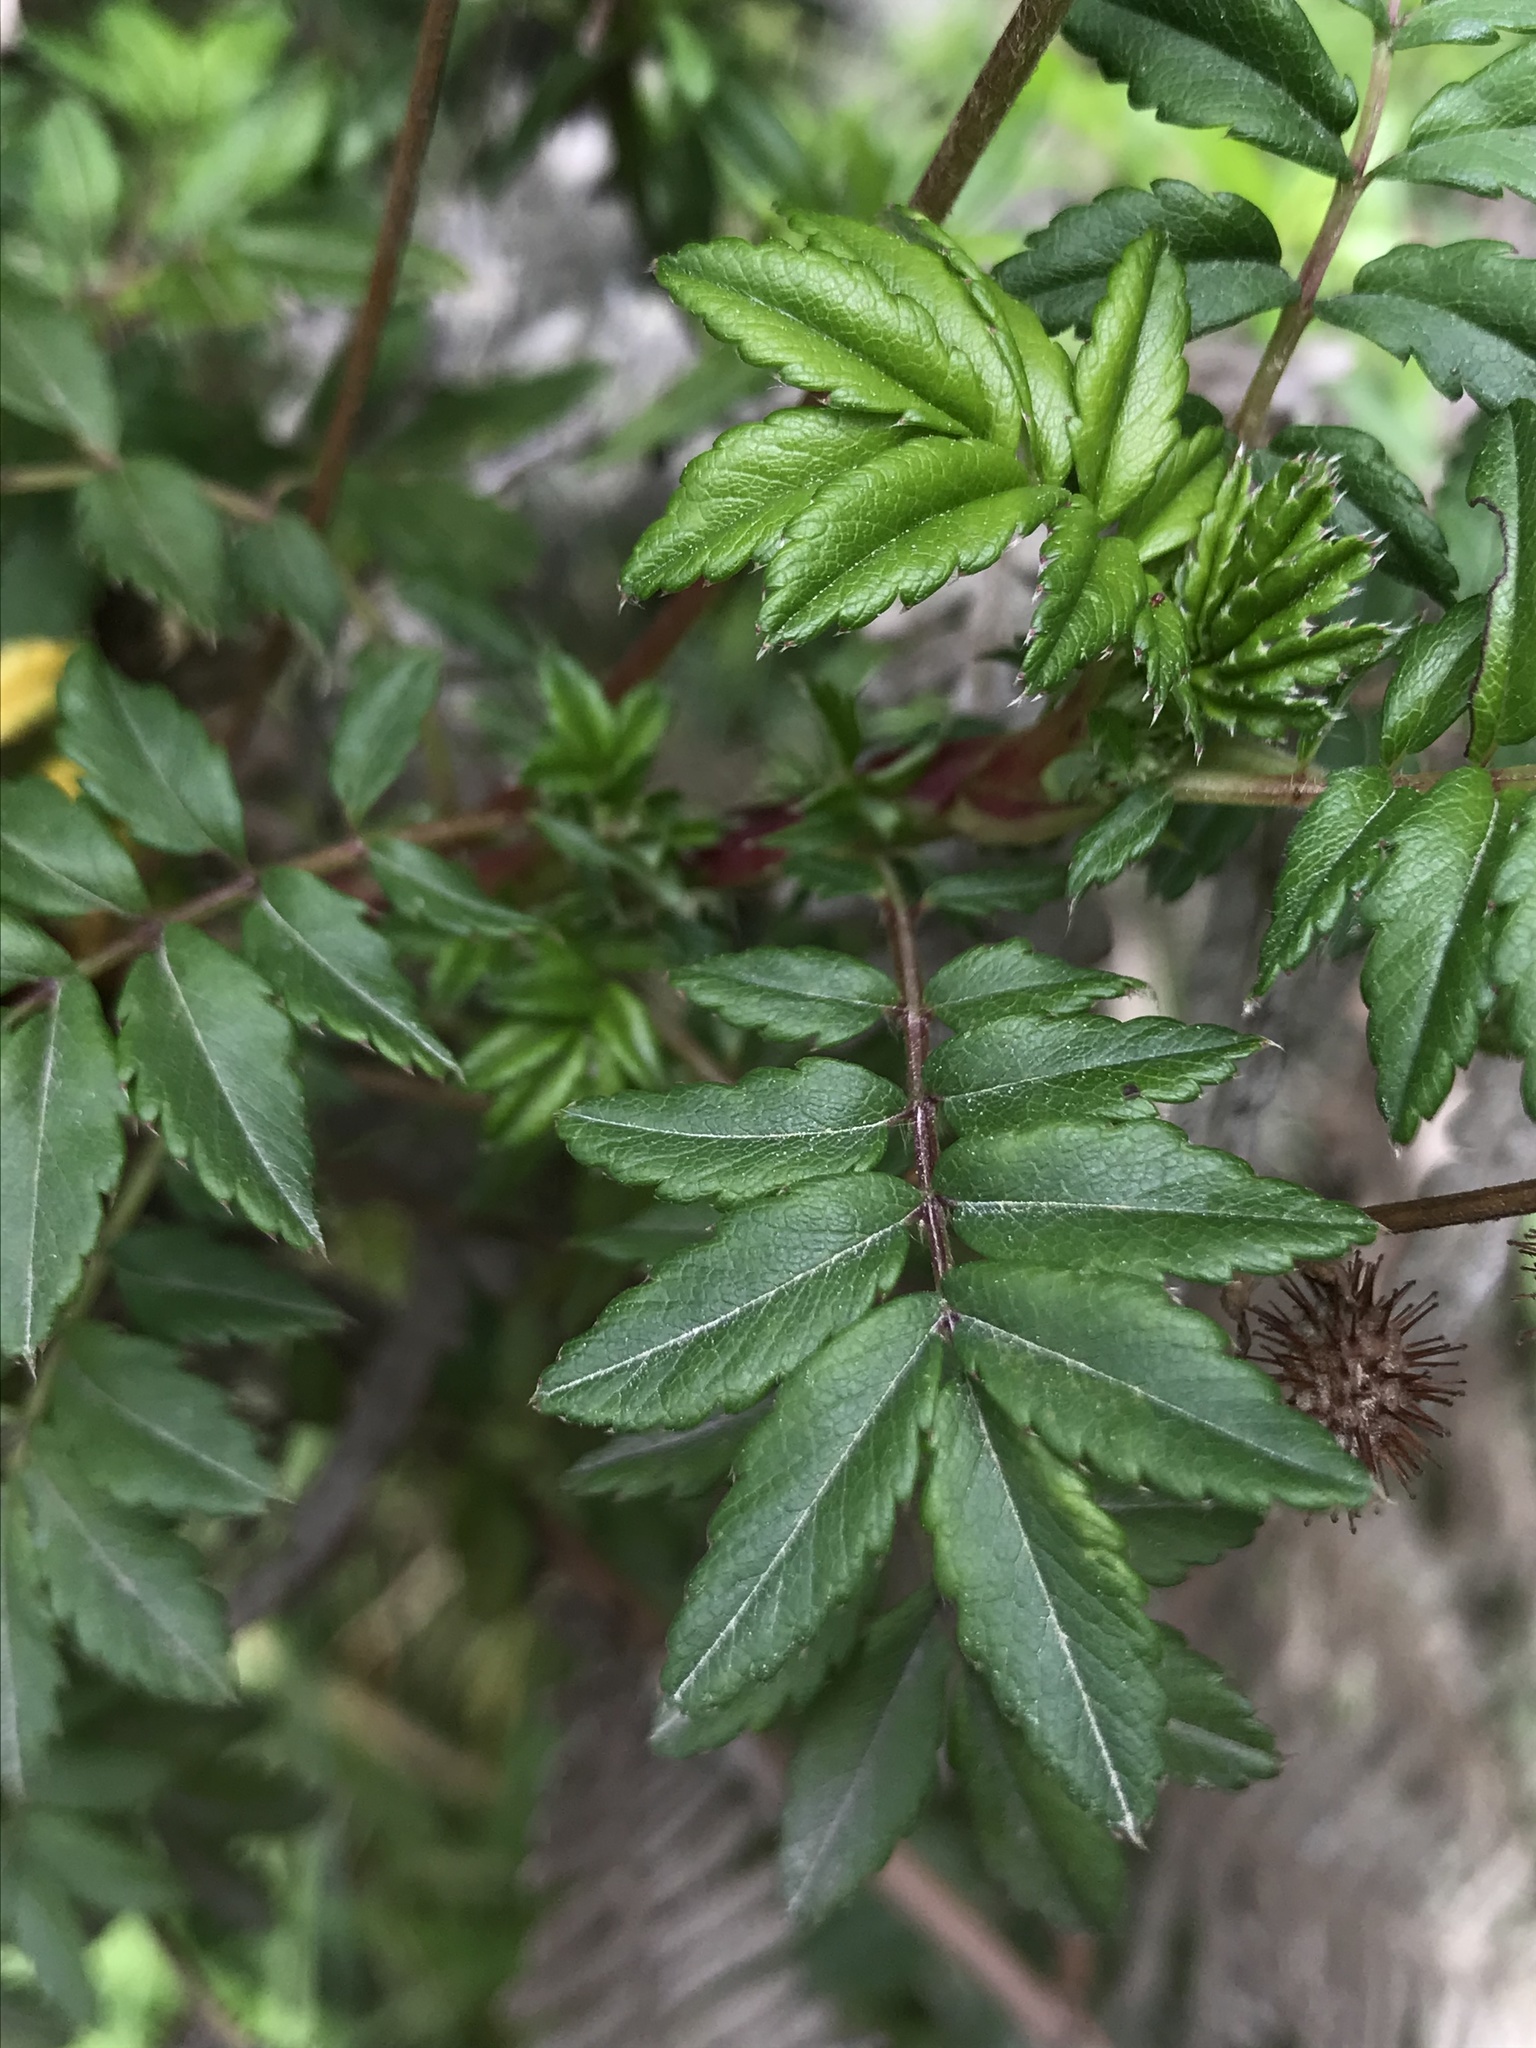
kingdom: Plantae
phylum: Tracheophyta
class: Magnoliopsida
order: Rosales
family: Rosaceae
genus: Acaena
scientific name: Acaena elongata
